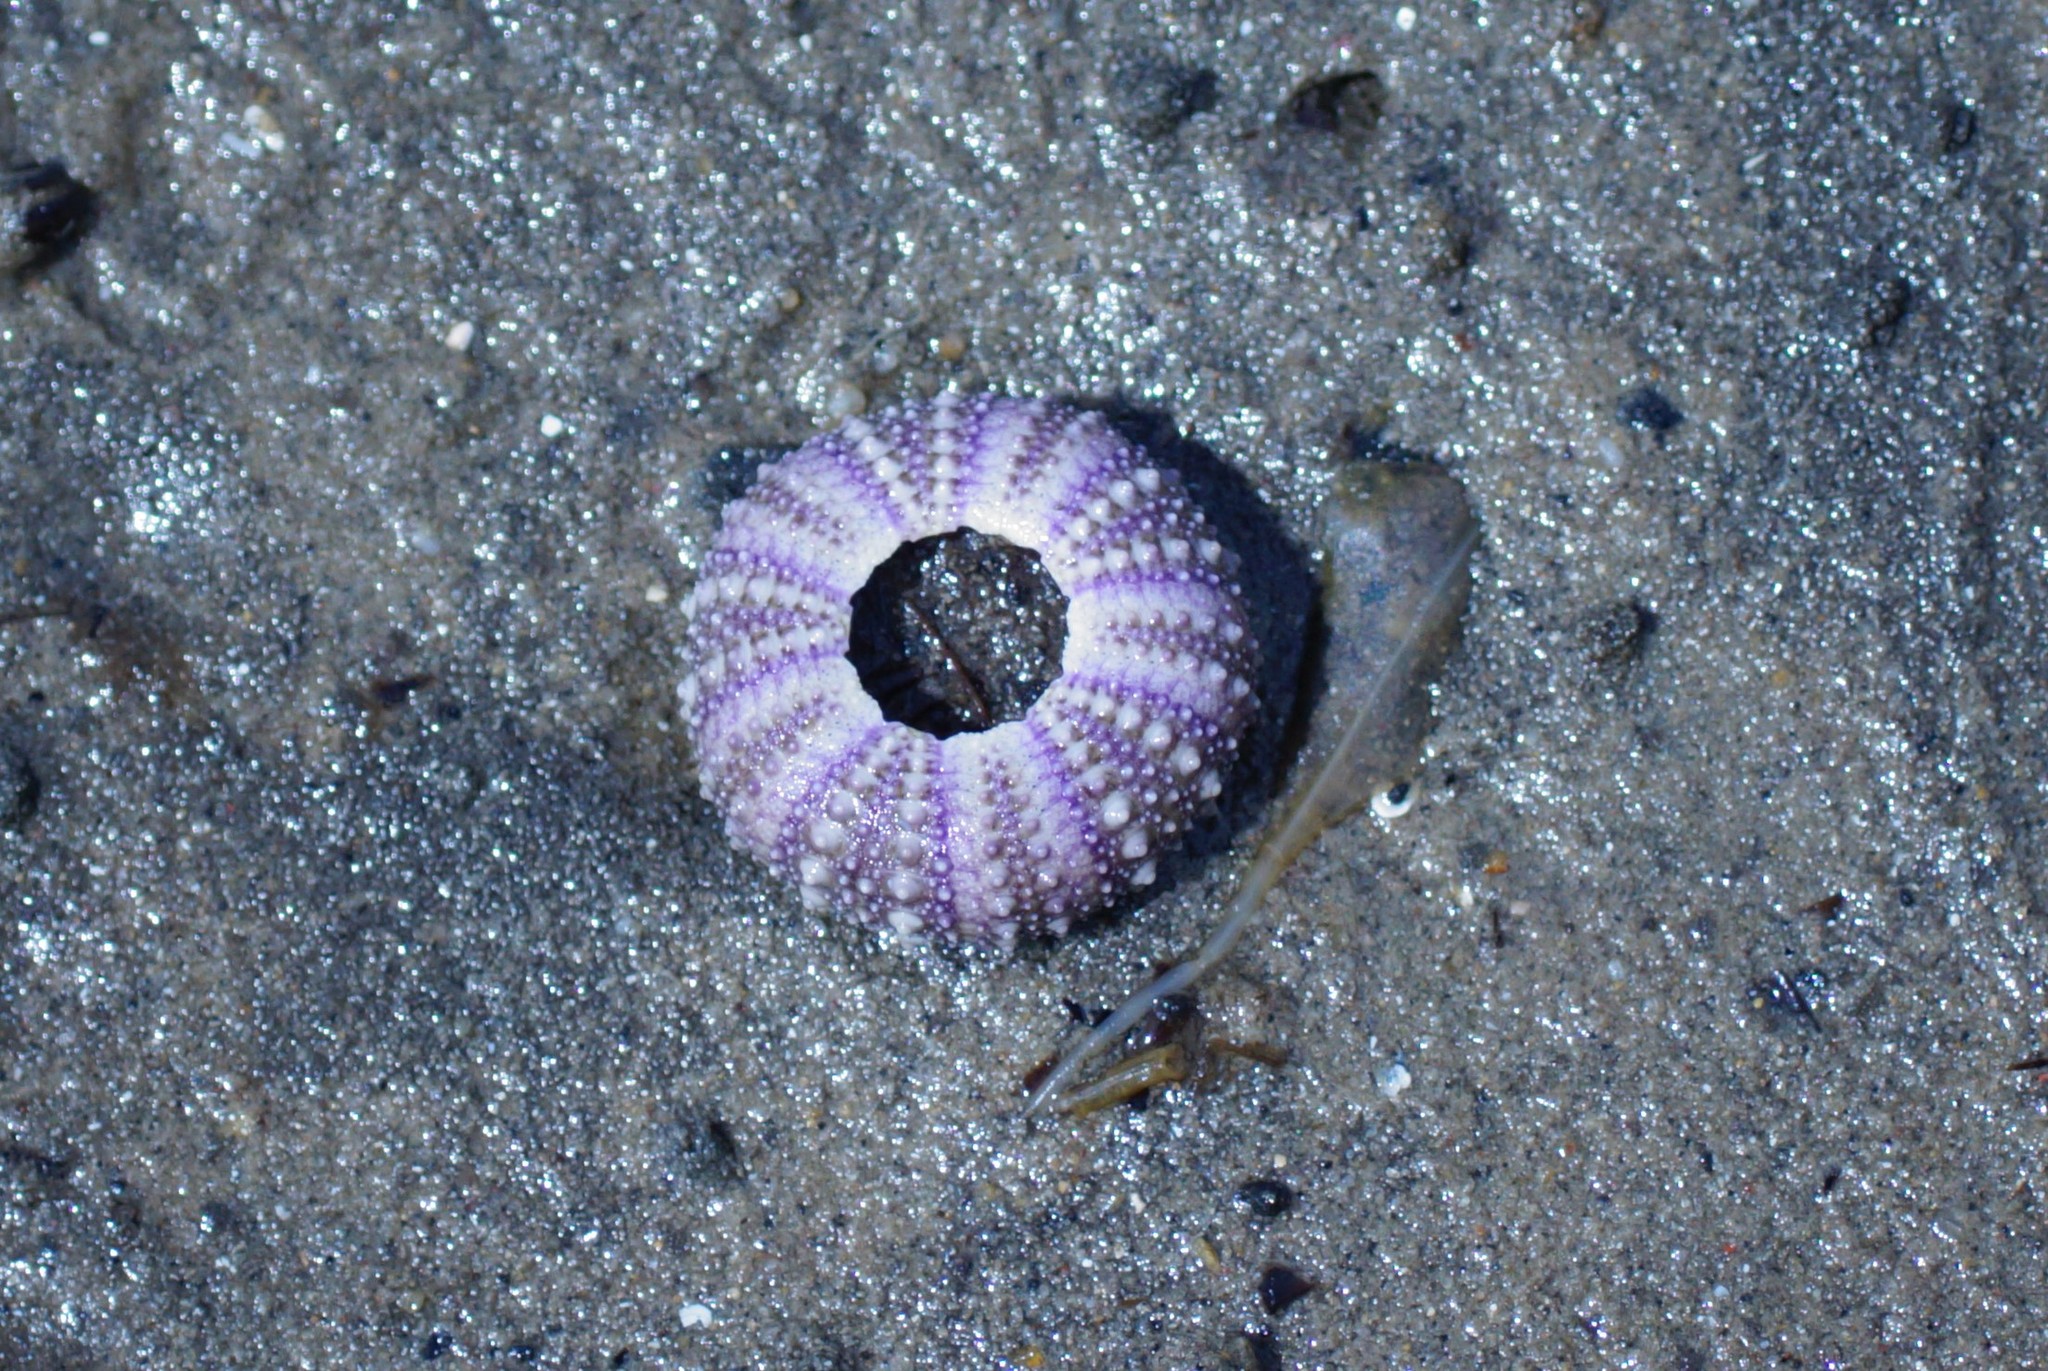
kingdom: Animalia
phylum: Echinodermata
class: Echinoidea
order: Camarodonta
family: Echinometridae
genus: Heliocidaris
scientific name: Heliocidaris erythrogramma
